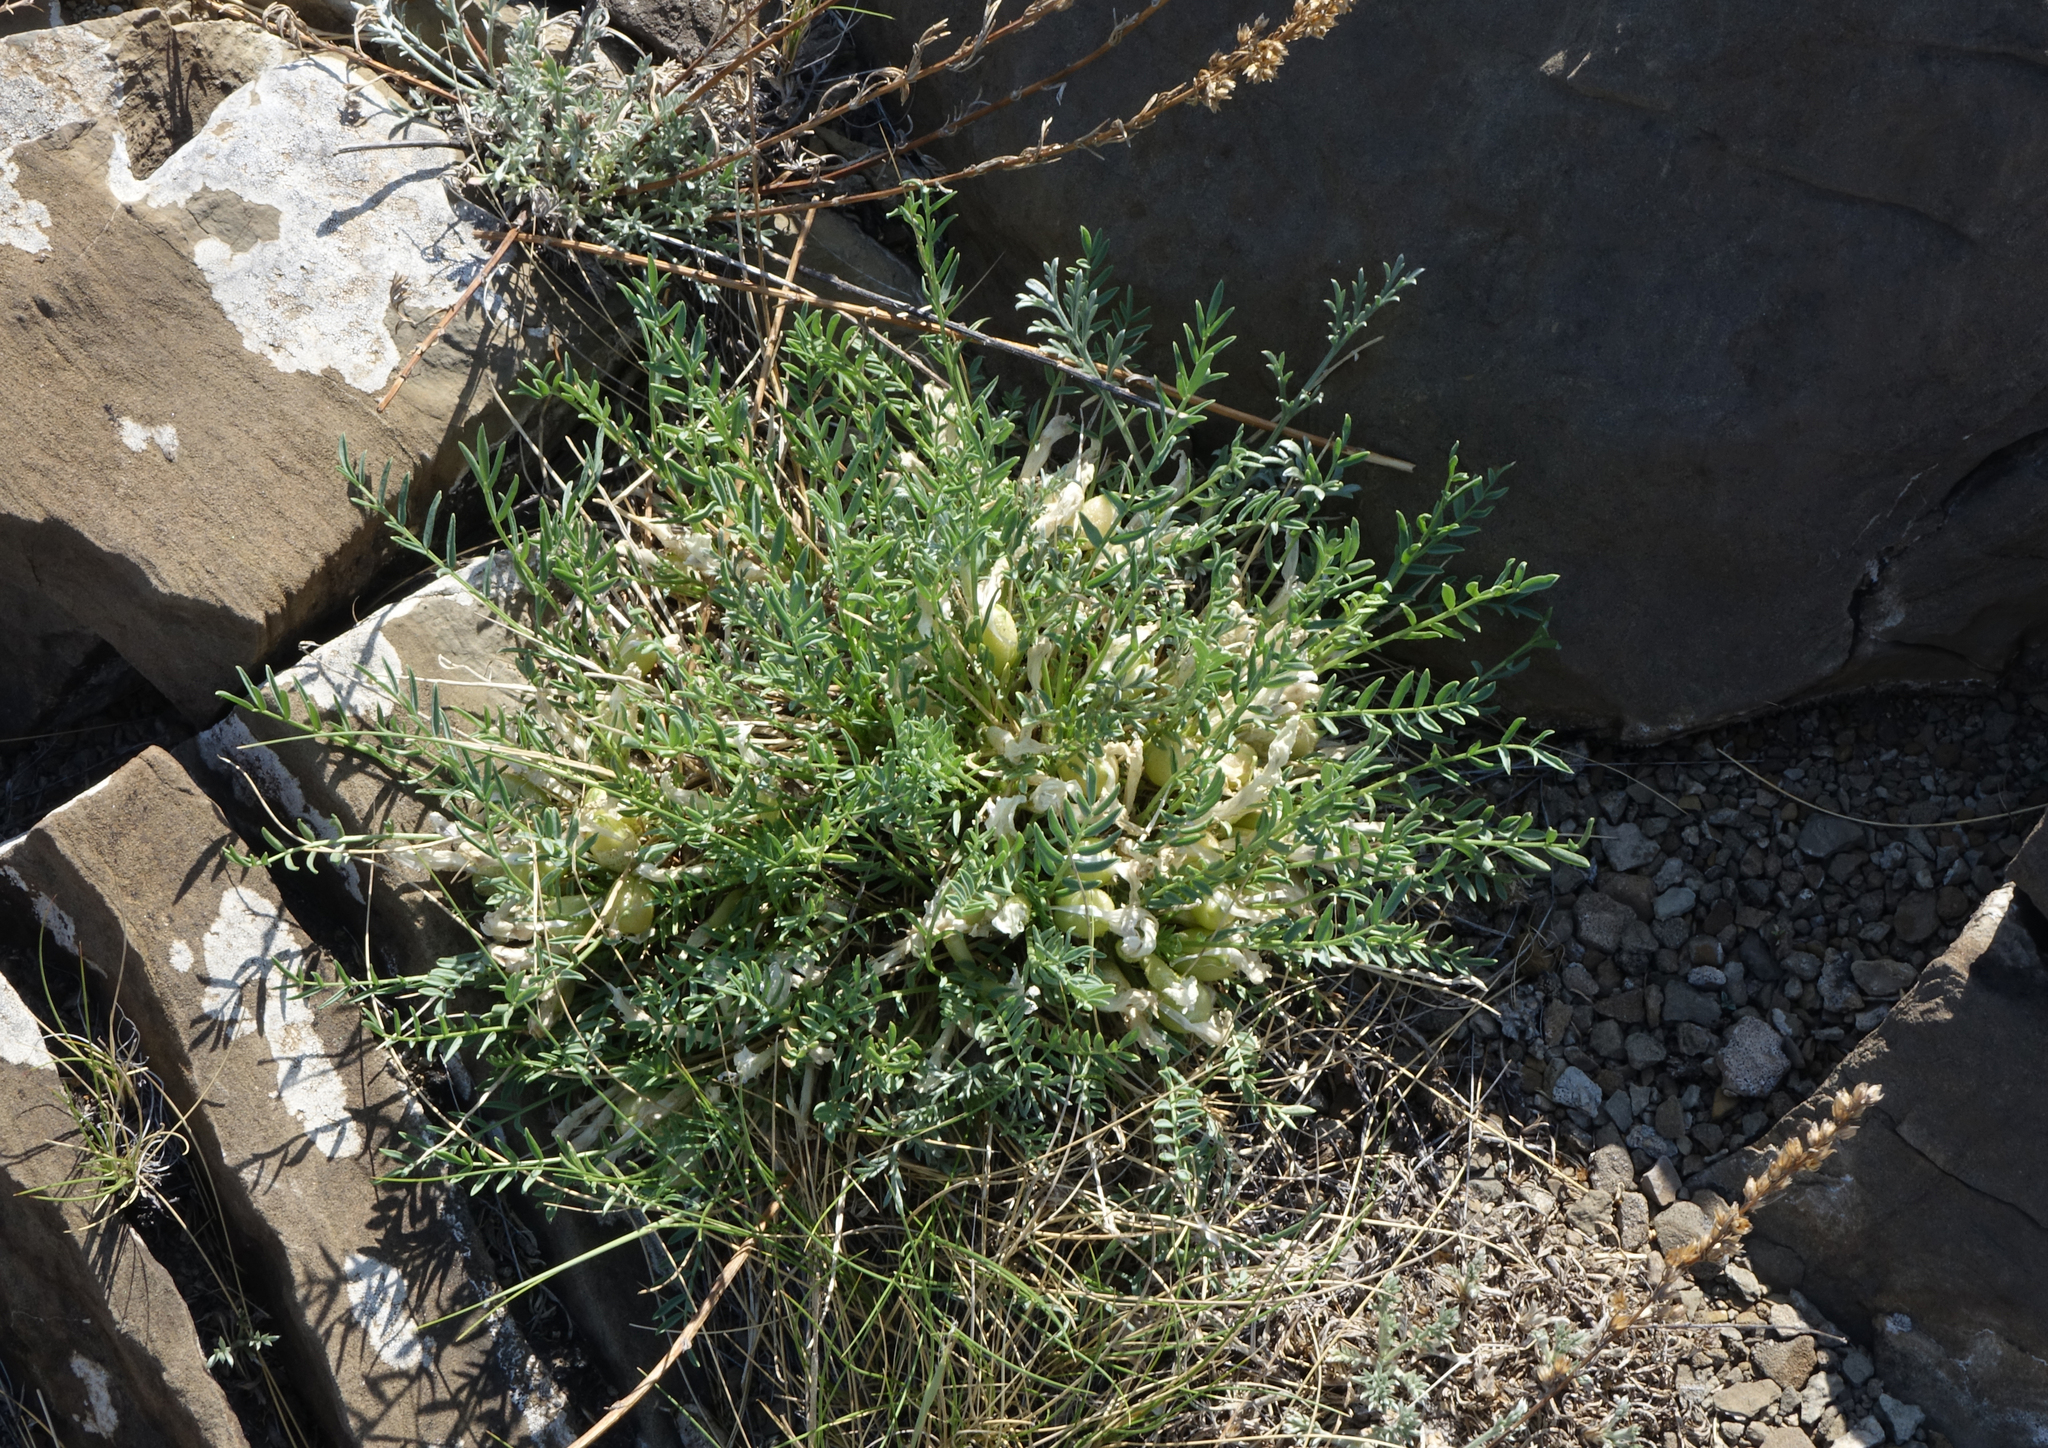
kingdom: Plantae
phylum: Tracheophyta
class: Magnoliopsida
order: Fabales
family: Fabaceae
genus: Oxytropis
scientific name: Oxytropis squammulosa
